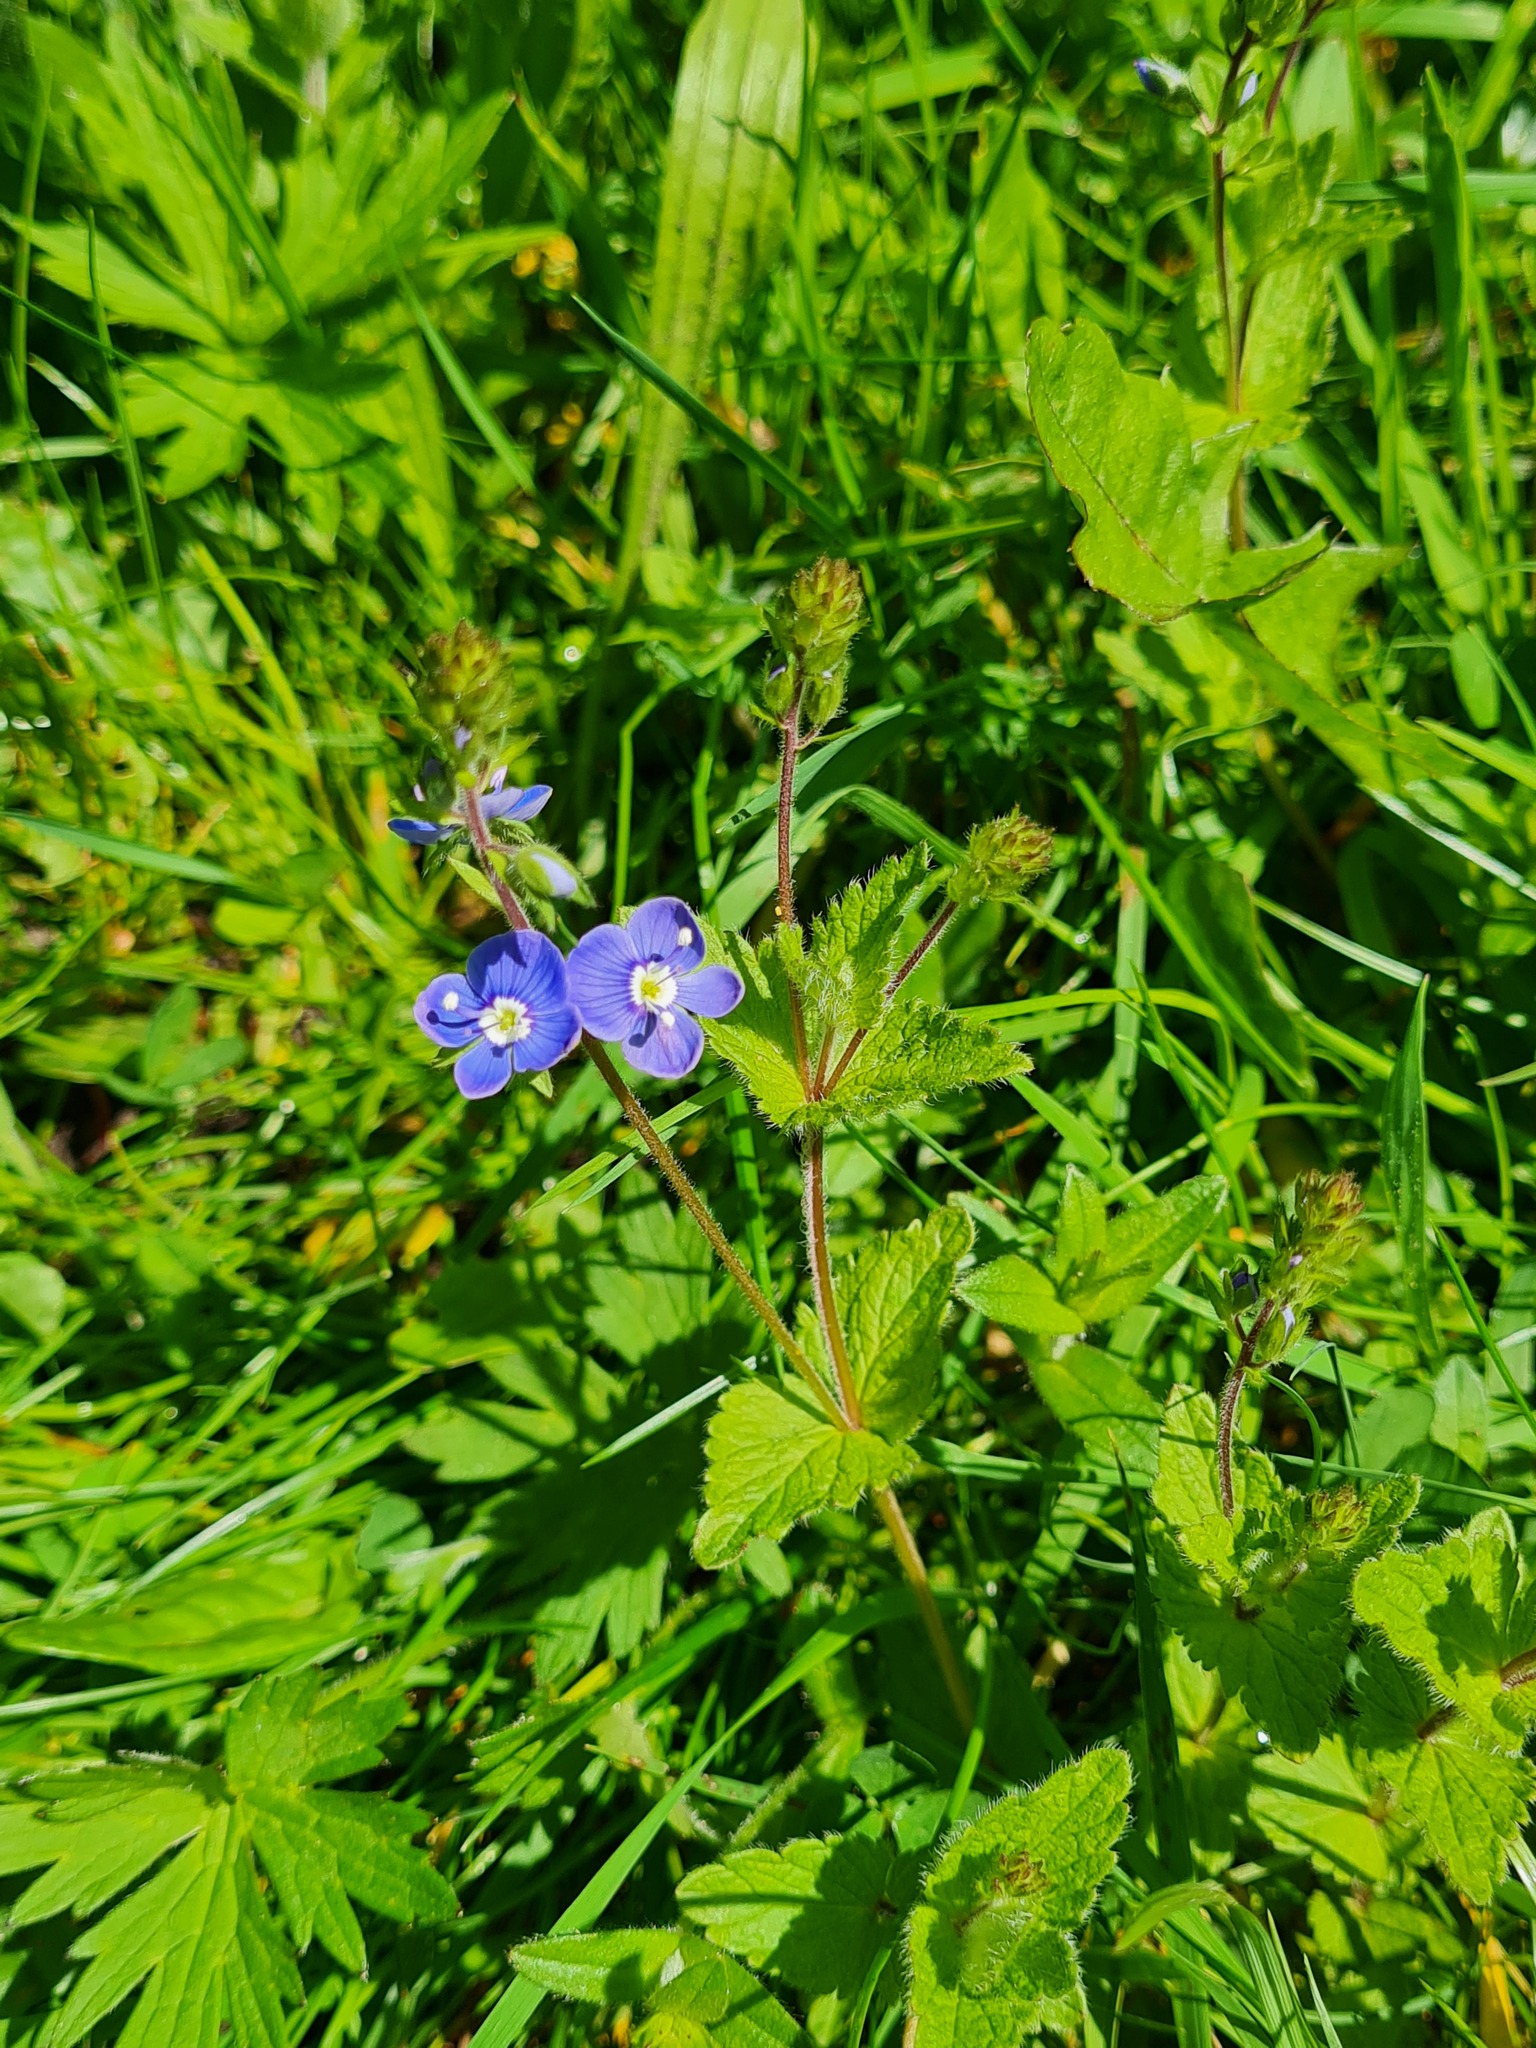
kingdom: Plantae
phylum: Tracheophyta
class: Magnoliopsida
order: Lamiales
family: Plantaginaceae
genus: Veronica
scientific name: Veronica chamaedrys
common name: Germander speedwell
